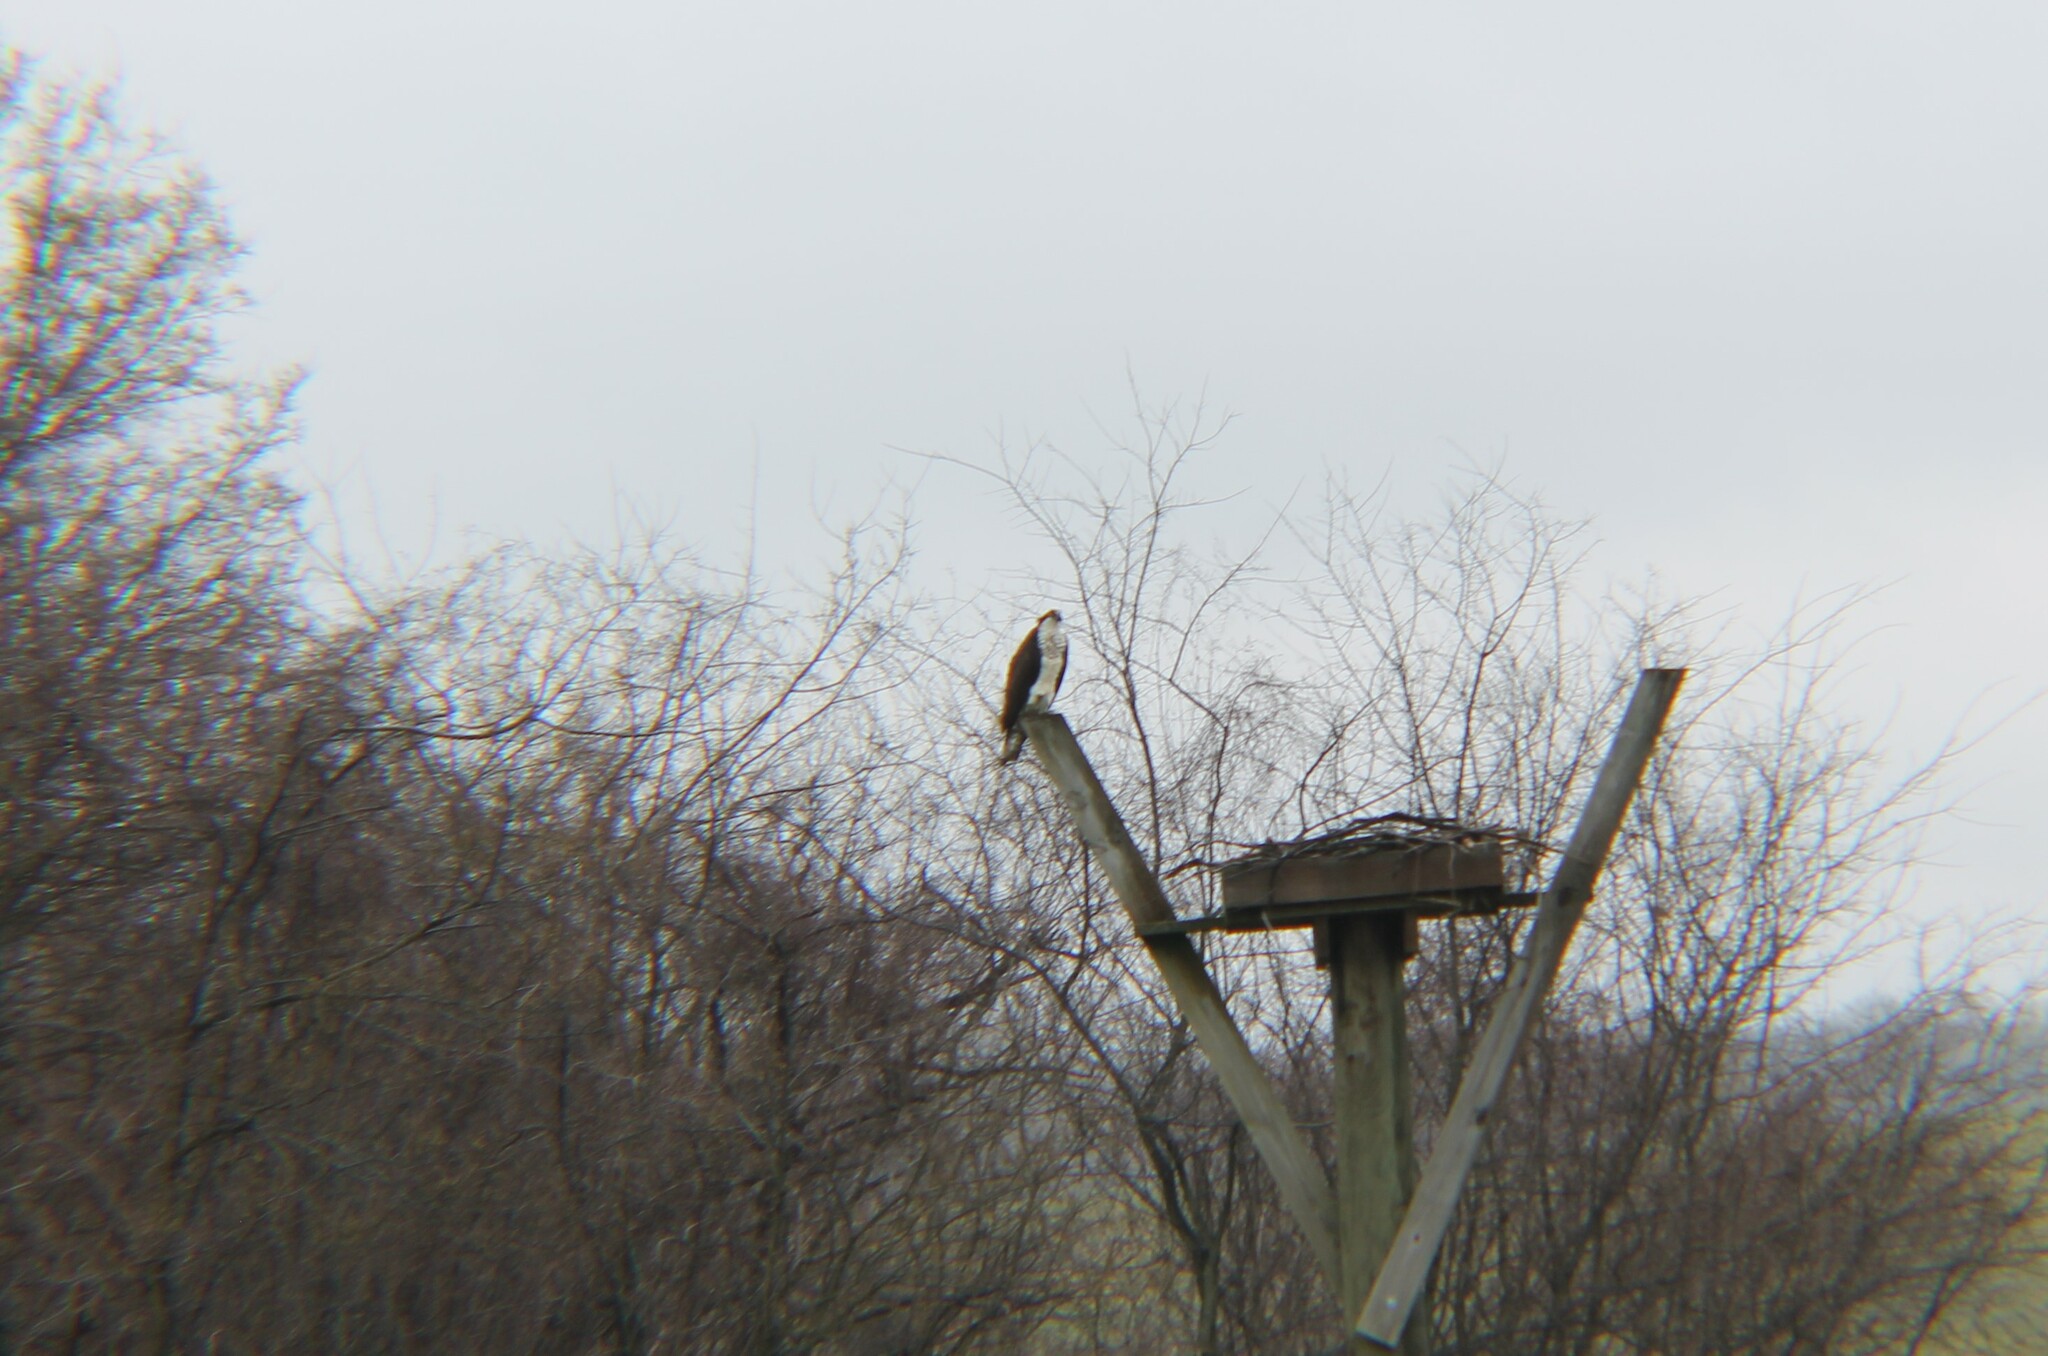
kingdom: Animalia
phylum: Chordata
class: Aves
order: Accipitriformes
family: Pandionidae
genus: Pandion
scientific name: Pandion haliaetus
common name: Osprey
